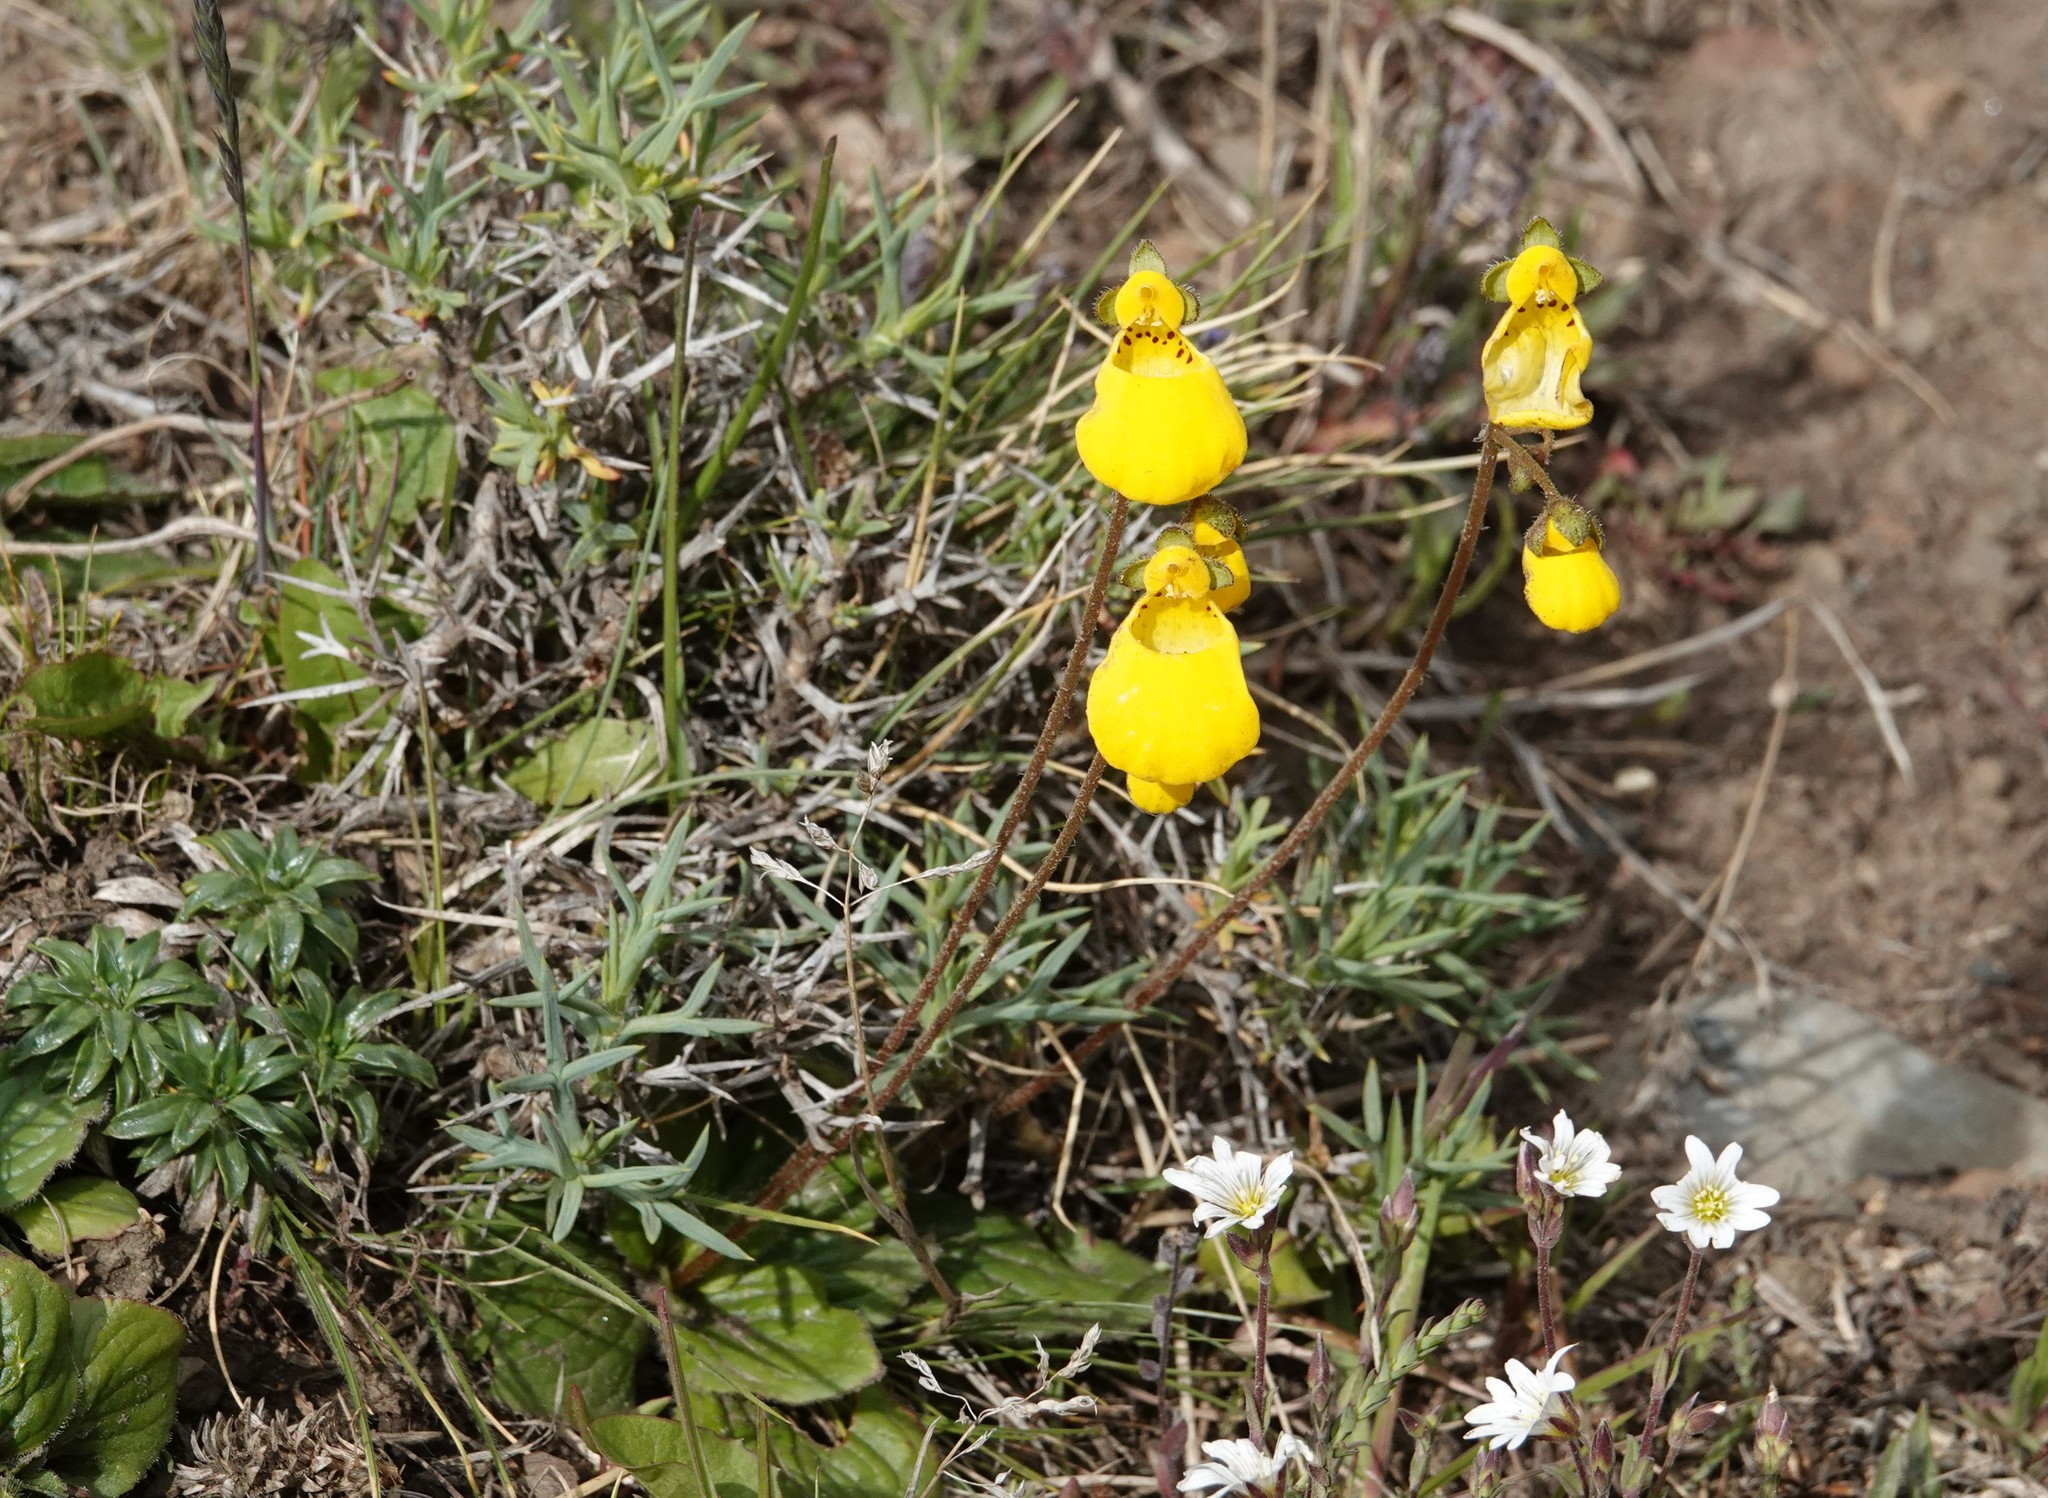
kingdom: Plantae
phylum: Tracheophyta
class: Magnoliopsida
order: Lamiales
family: Calceolariaceae
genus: Calceolaria
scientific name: Calceolaria biflora
